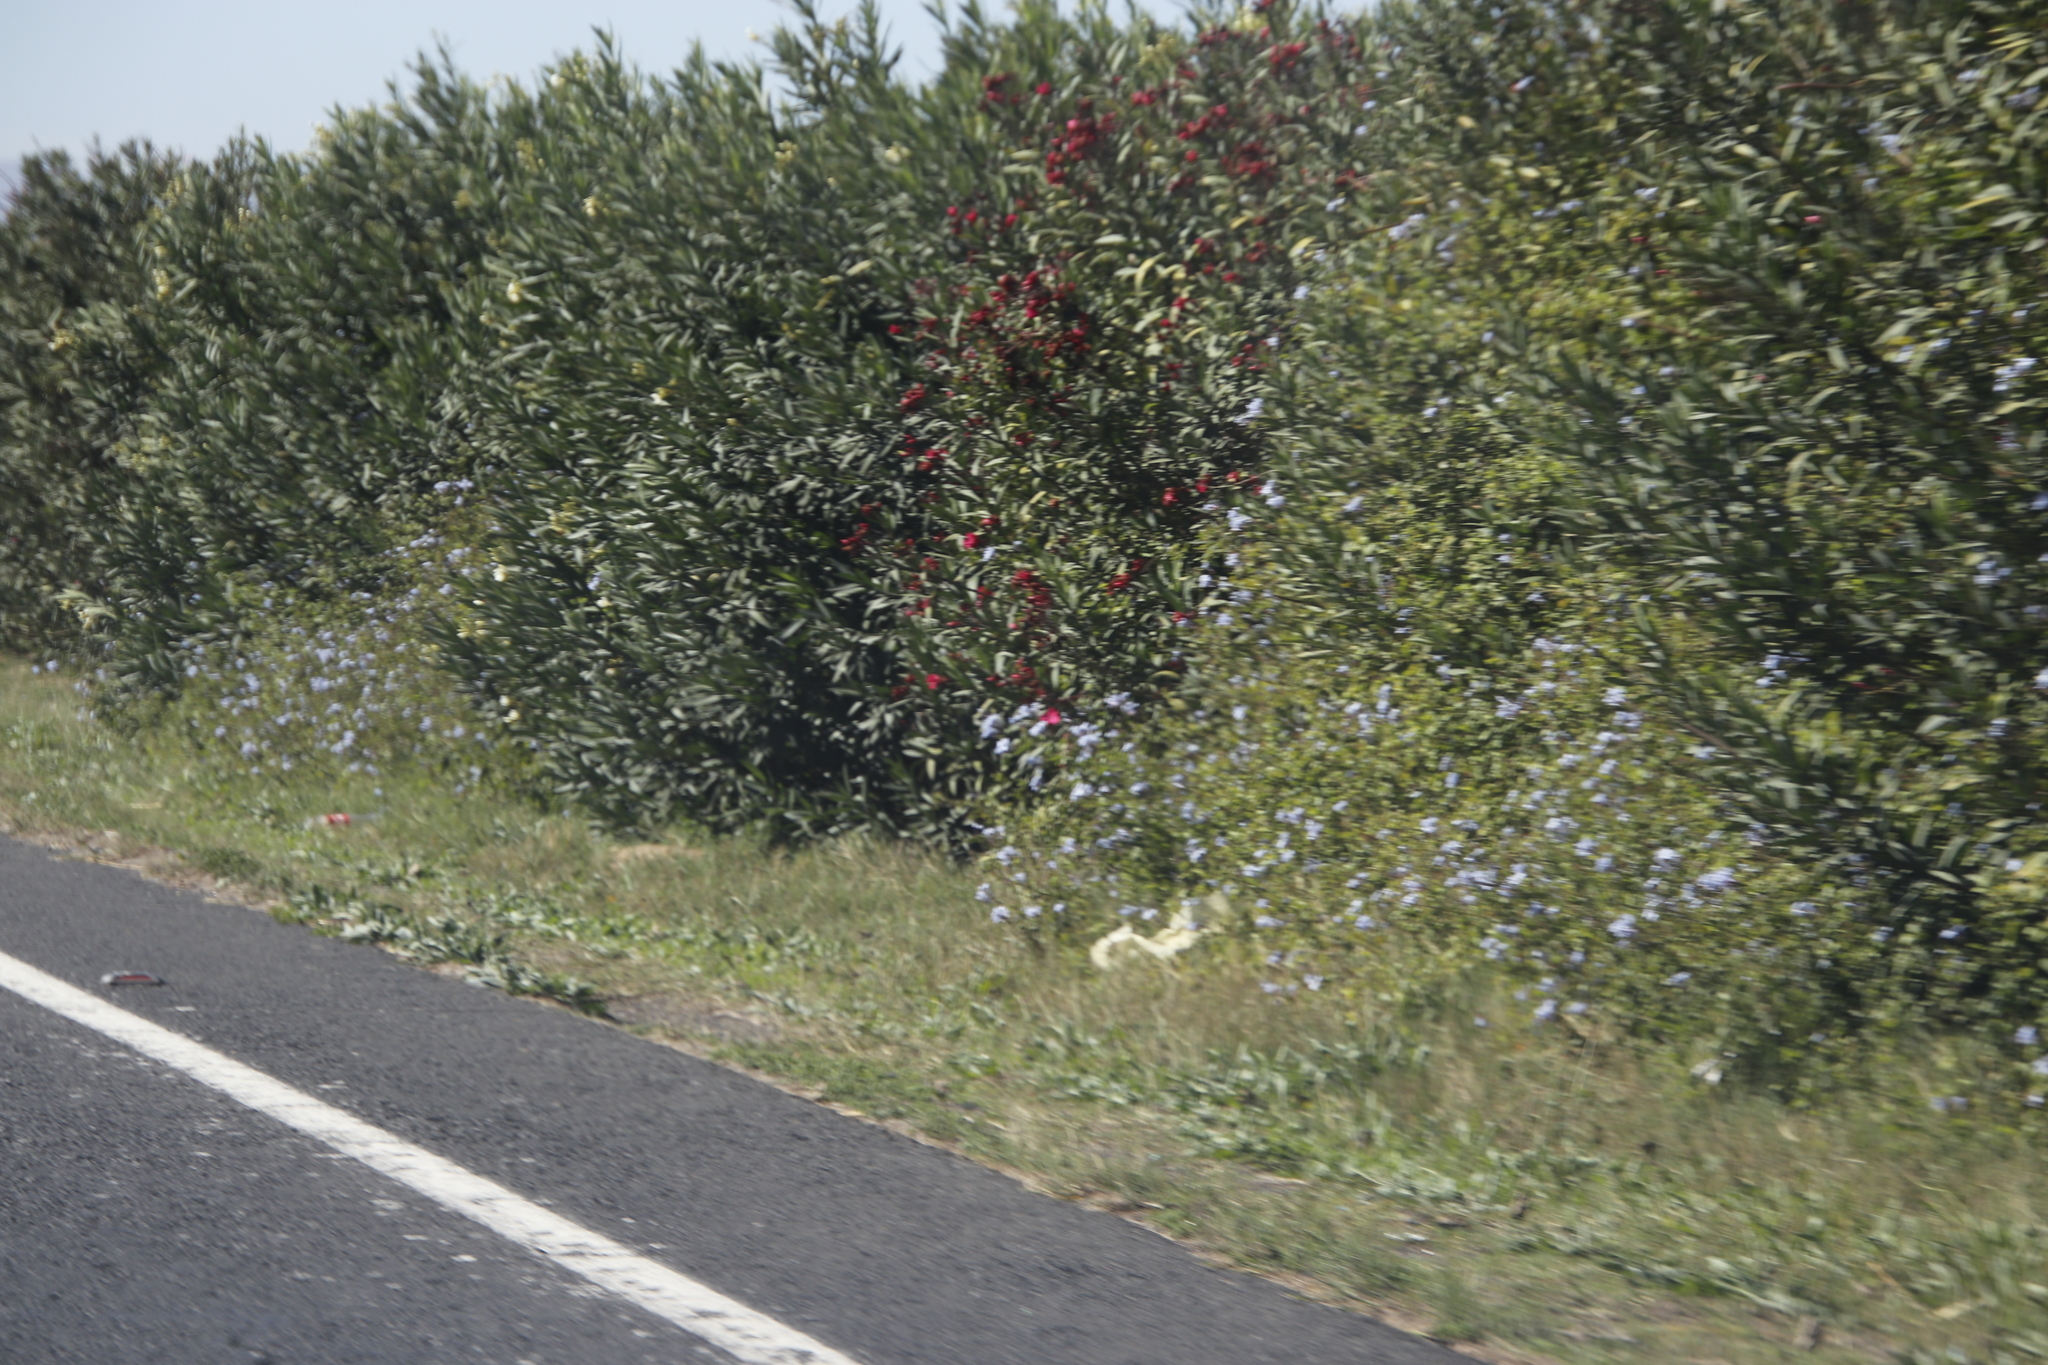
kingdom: Plantae
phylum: Tracheophyta
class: Magnoliopsida
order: Caryophyllales
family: Plumbaginaceae
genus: Plumbago
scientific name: Plumbago auriculata
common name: Cape leadwort
